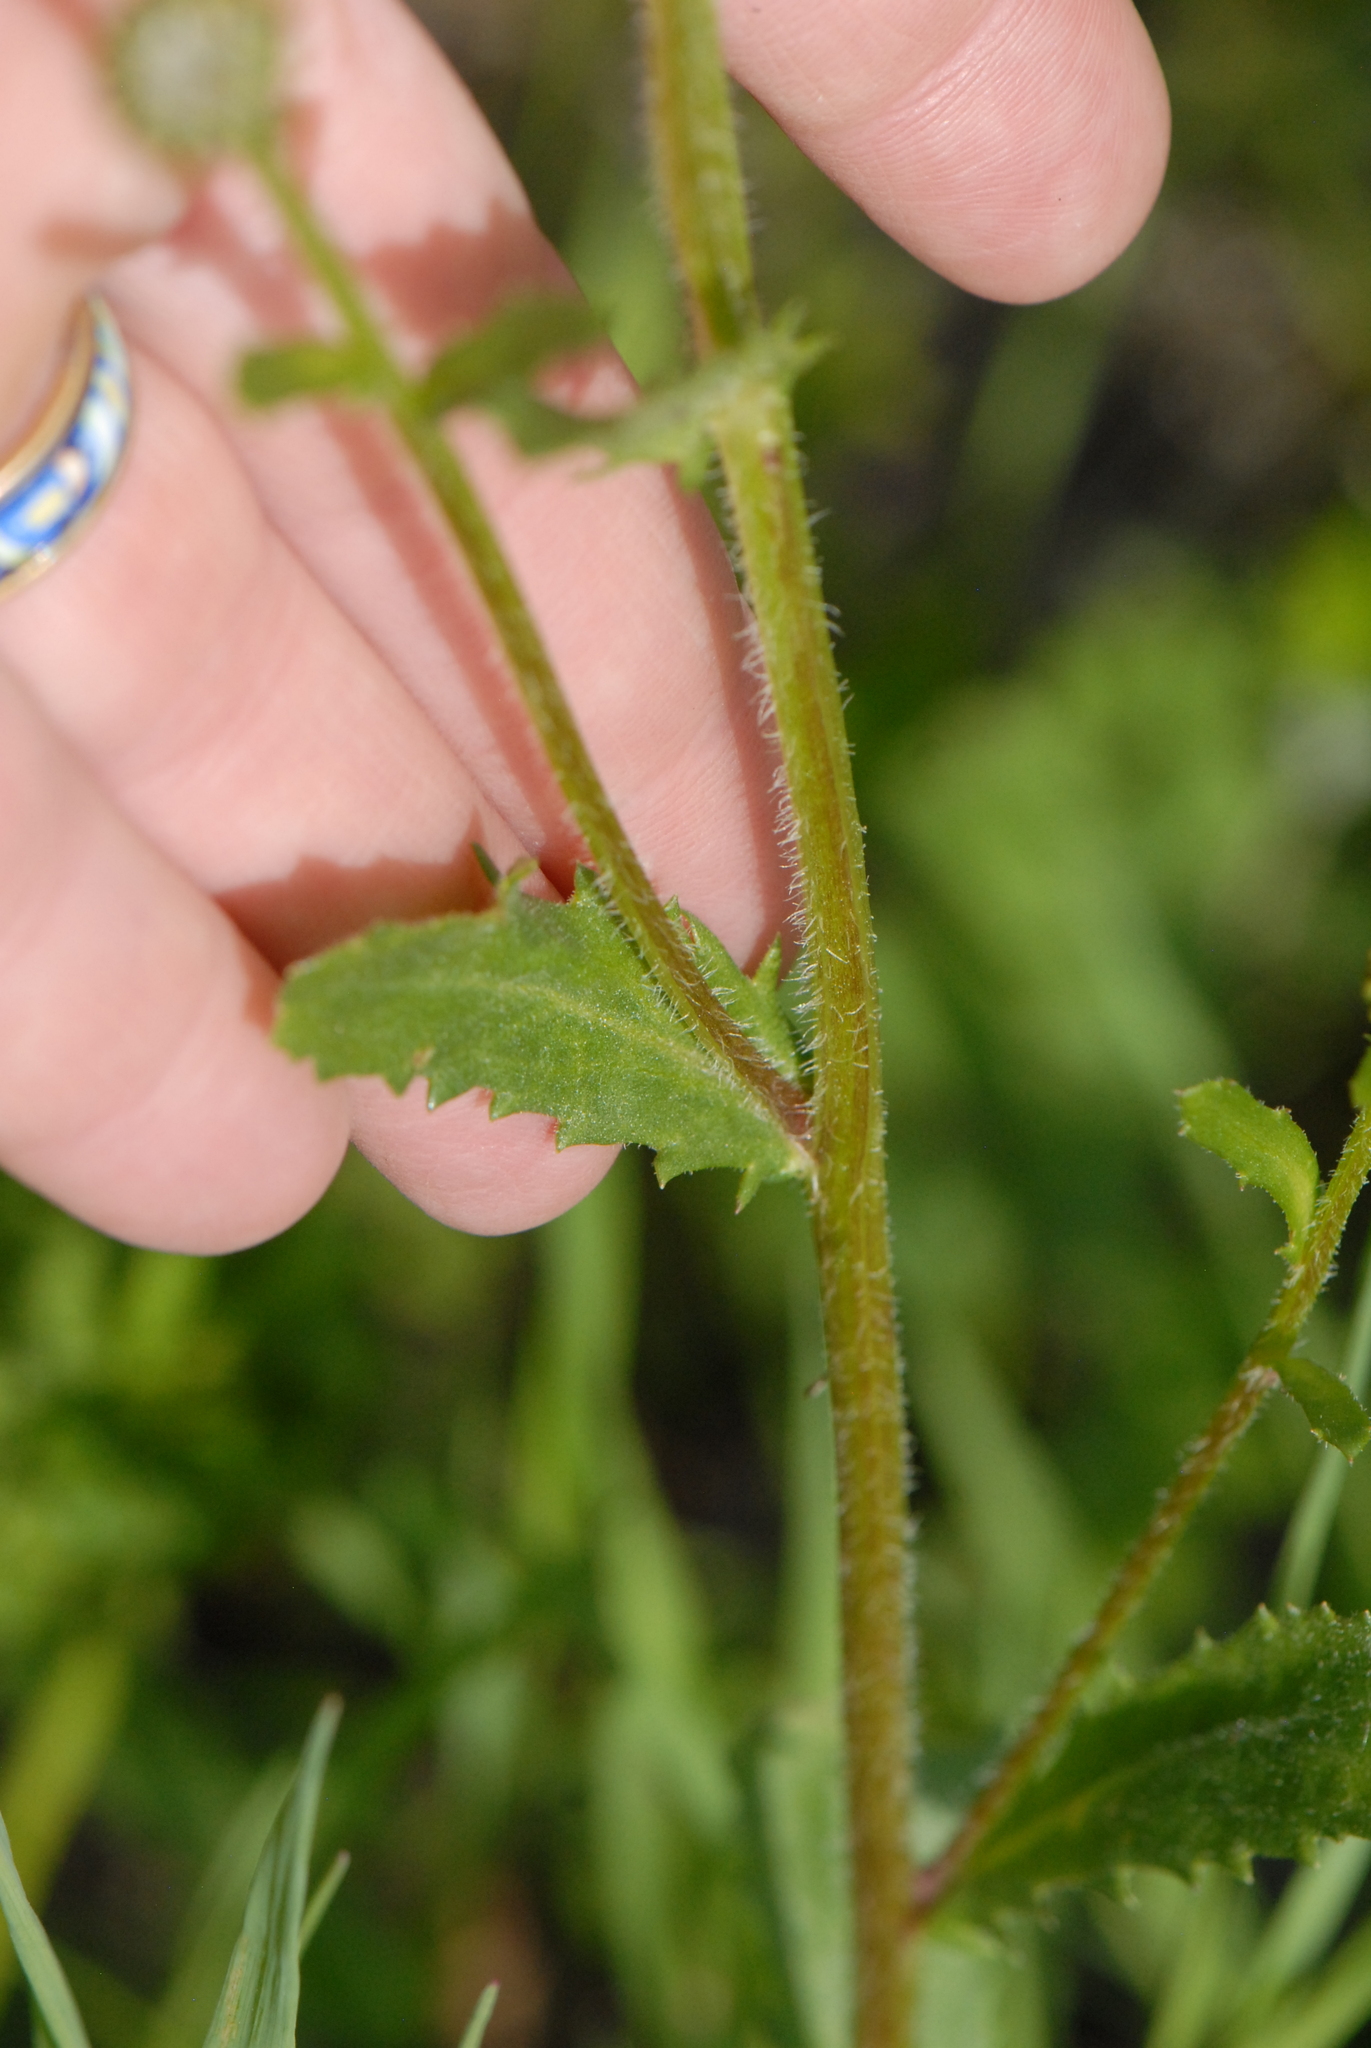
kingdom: Plantae
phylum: Tracheophyta
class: Magnoliopsida
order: Asterales
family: Asteraceae
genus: Leucanthemum
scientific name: Leucanthemum vulgare
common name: Oxeye daisy
